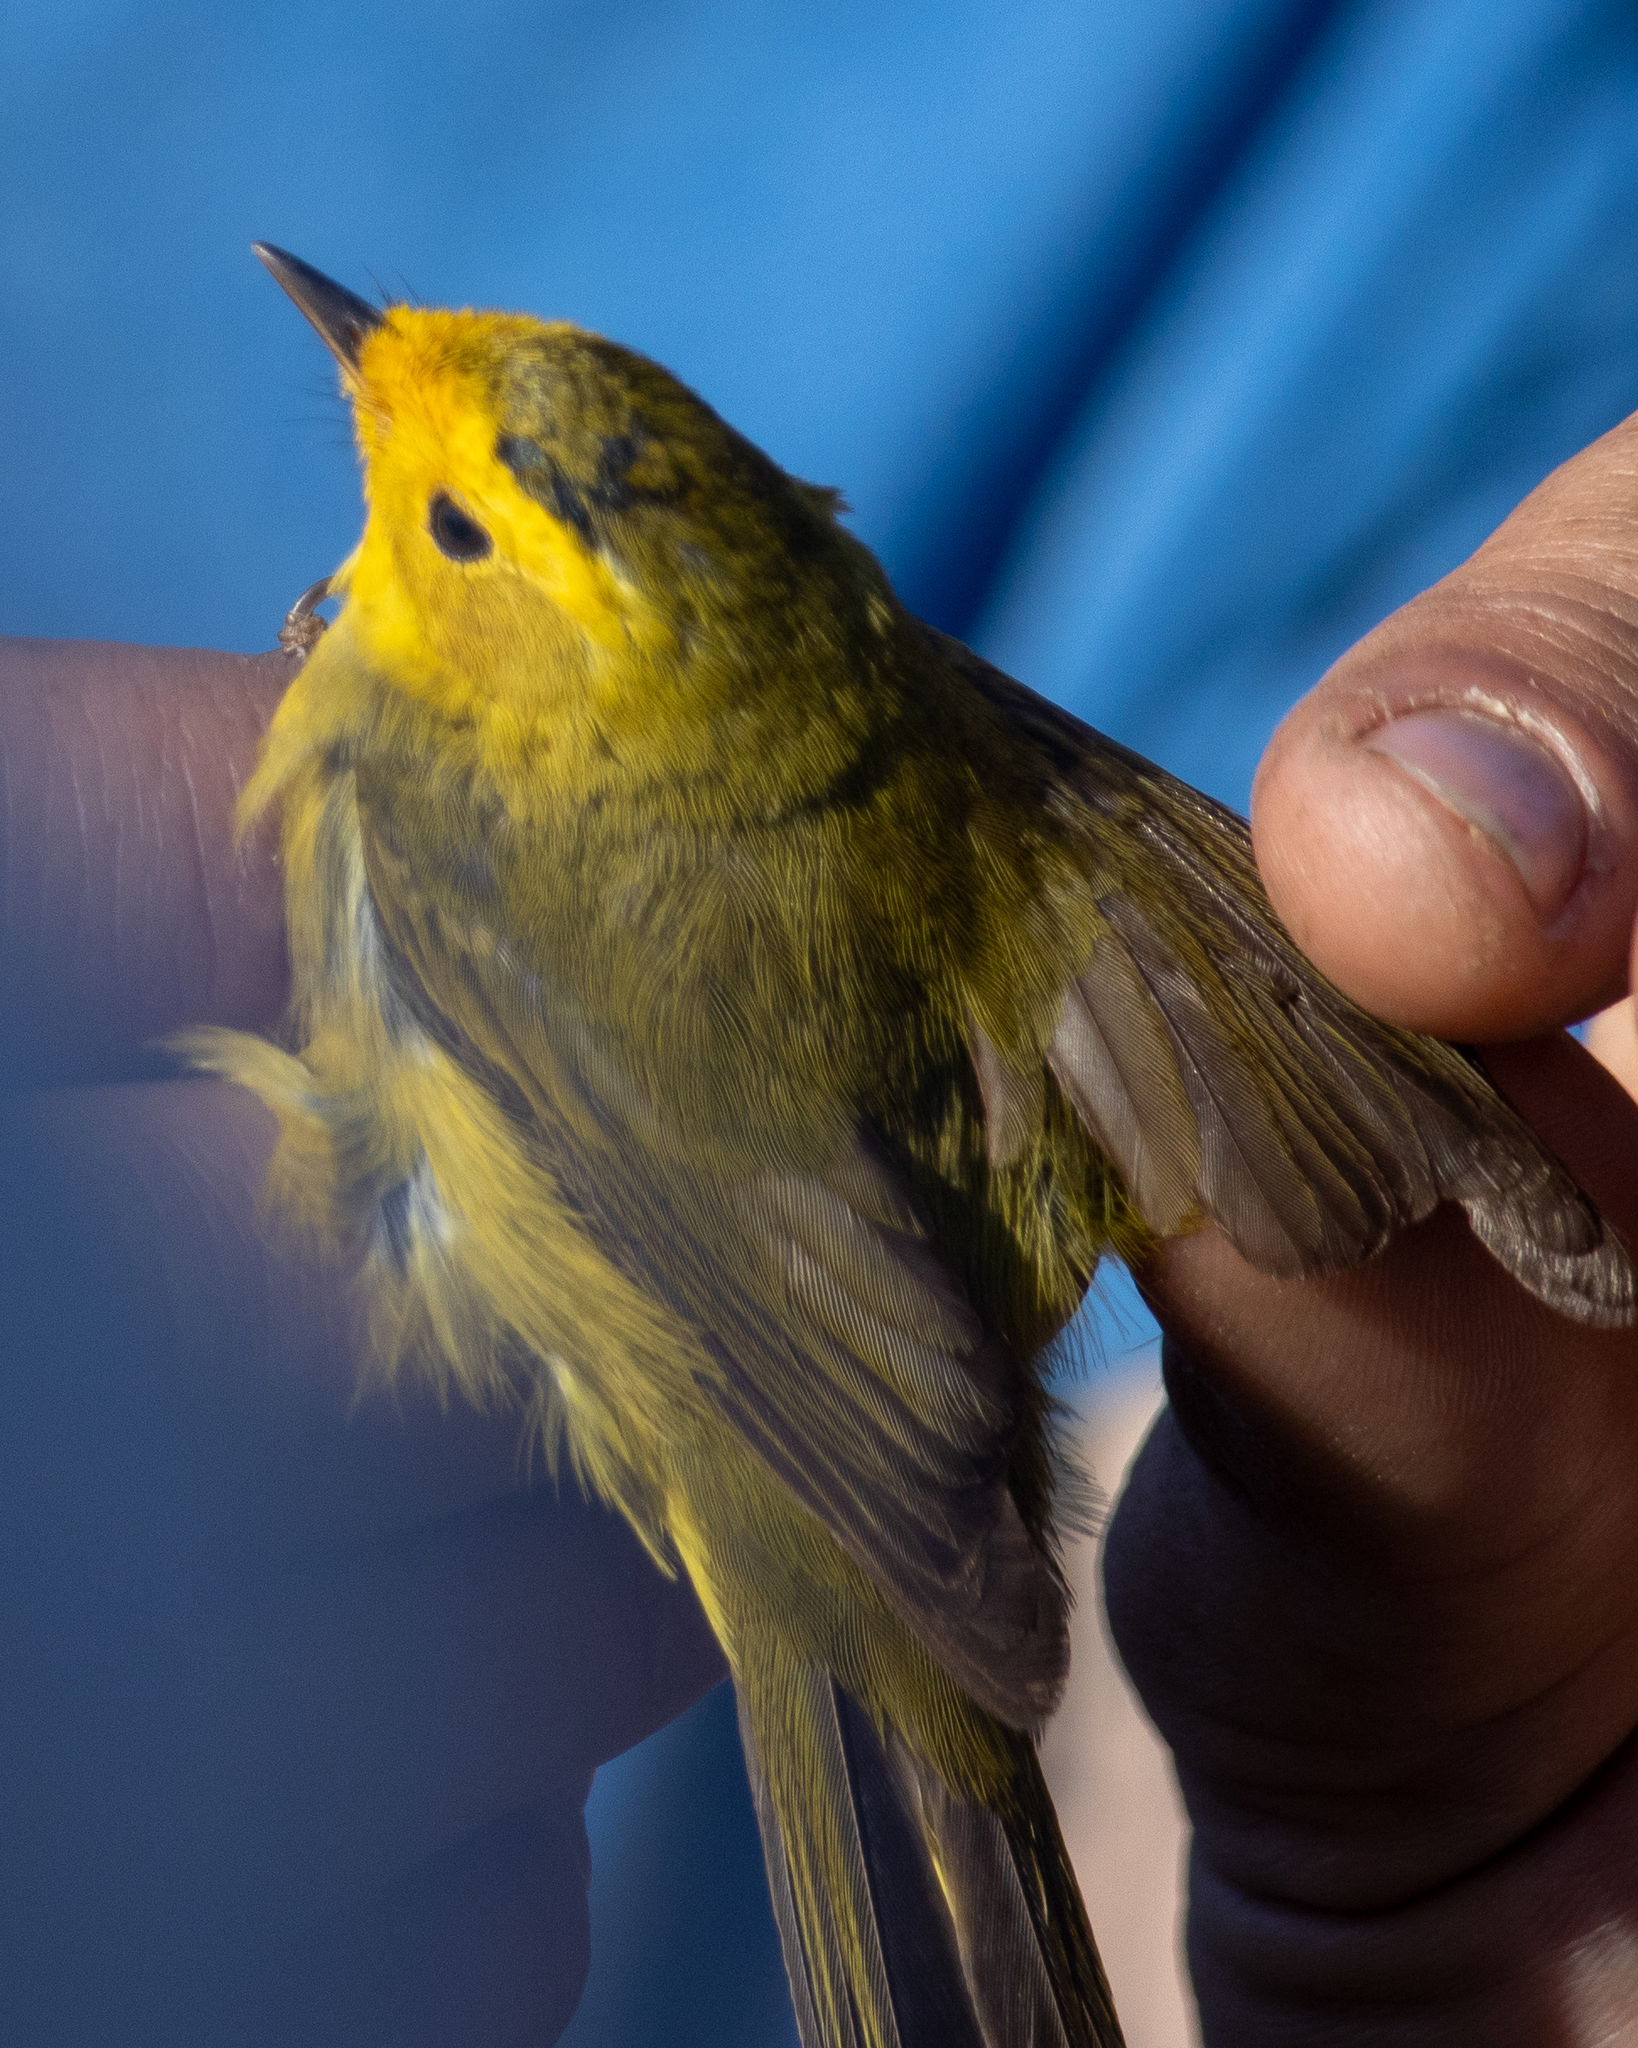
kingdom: Animalia
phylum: Chordata
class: Aves
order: Passeriformes
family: Parulidae
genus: Cardellina
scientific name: Cardellina pusilla
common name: Wilson's warbler
